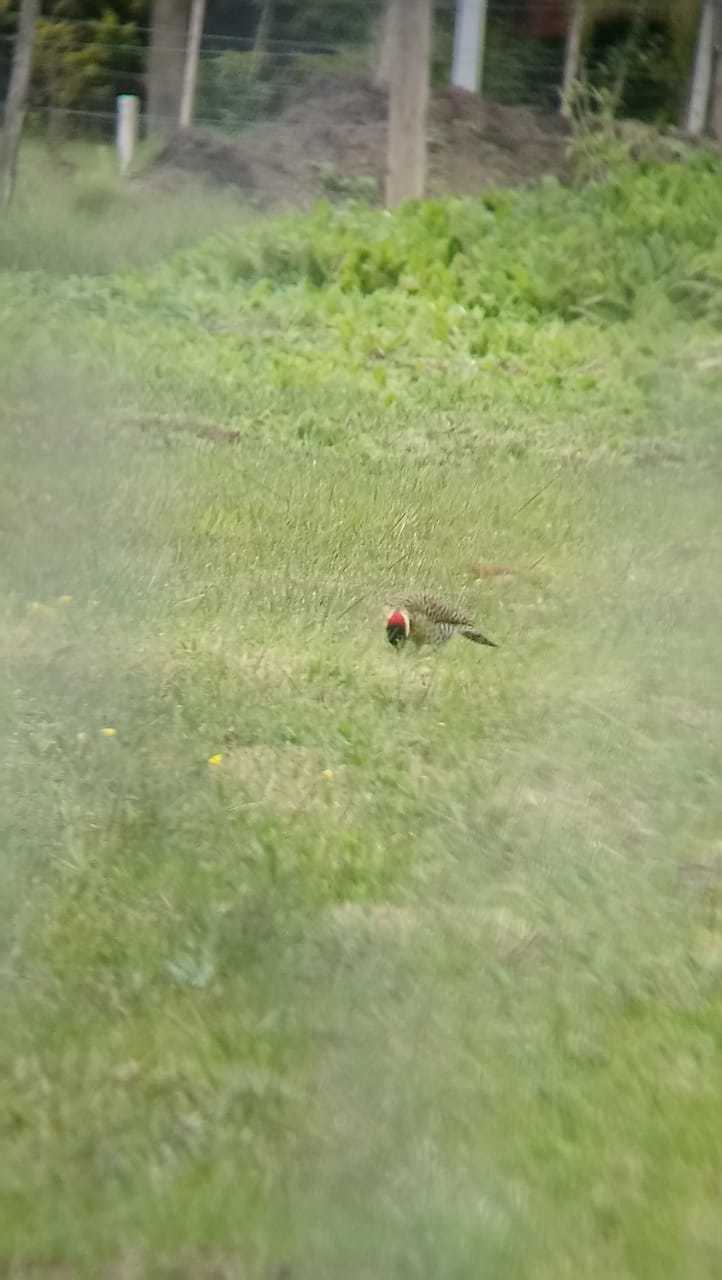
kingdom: Animalia
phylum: Chordata
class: Aves
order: Piciformes
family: Picidae
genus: Colaptes
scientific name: Colaptes melanochloros
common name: Green-barred woodpecker
